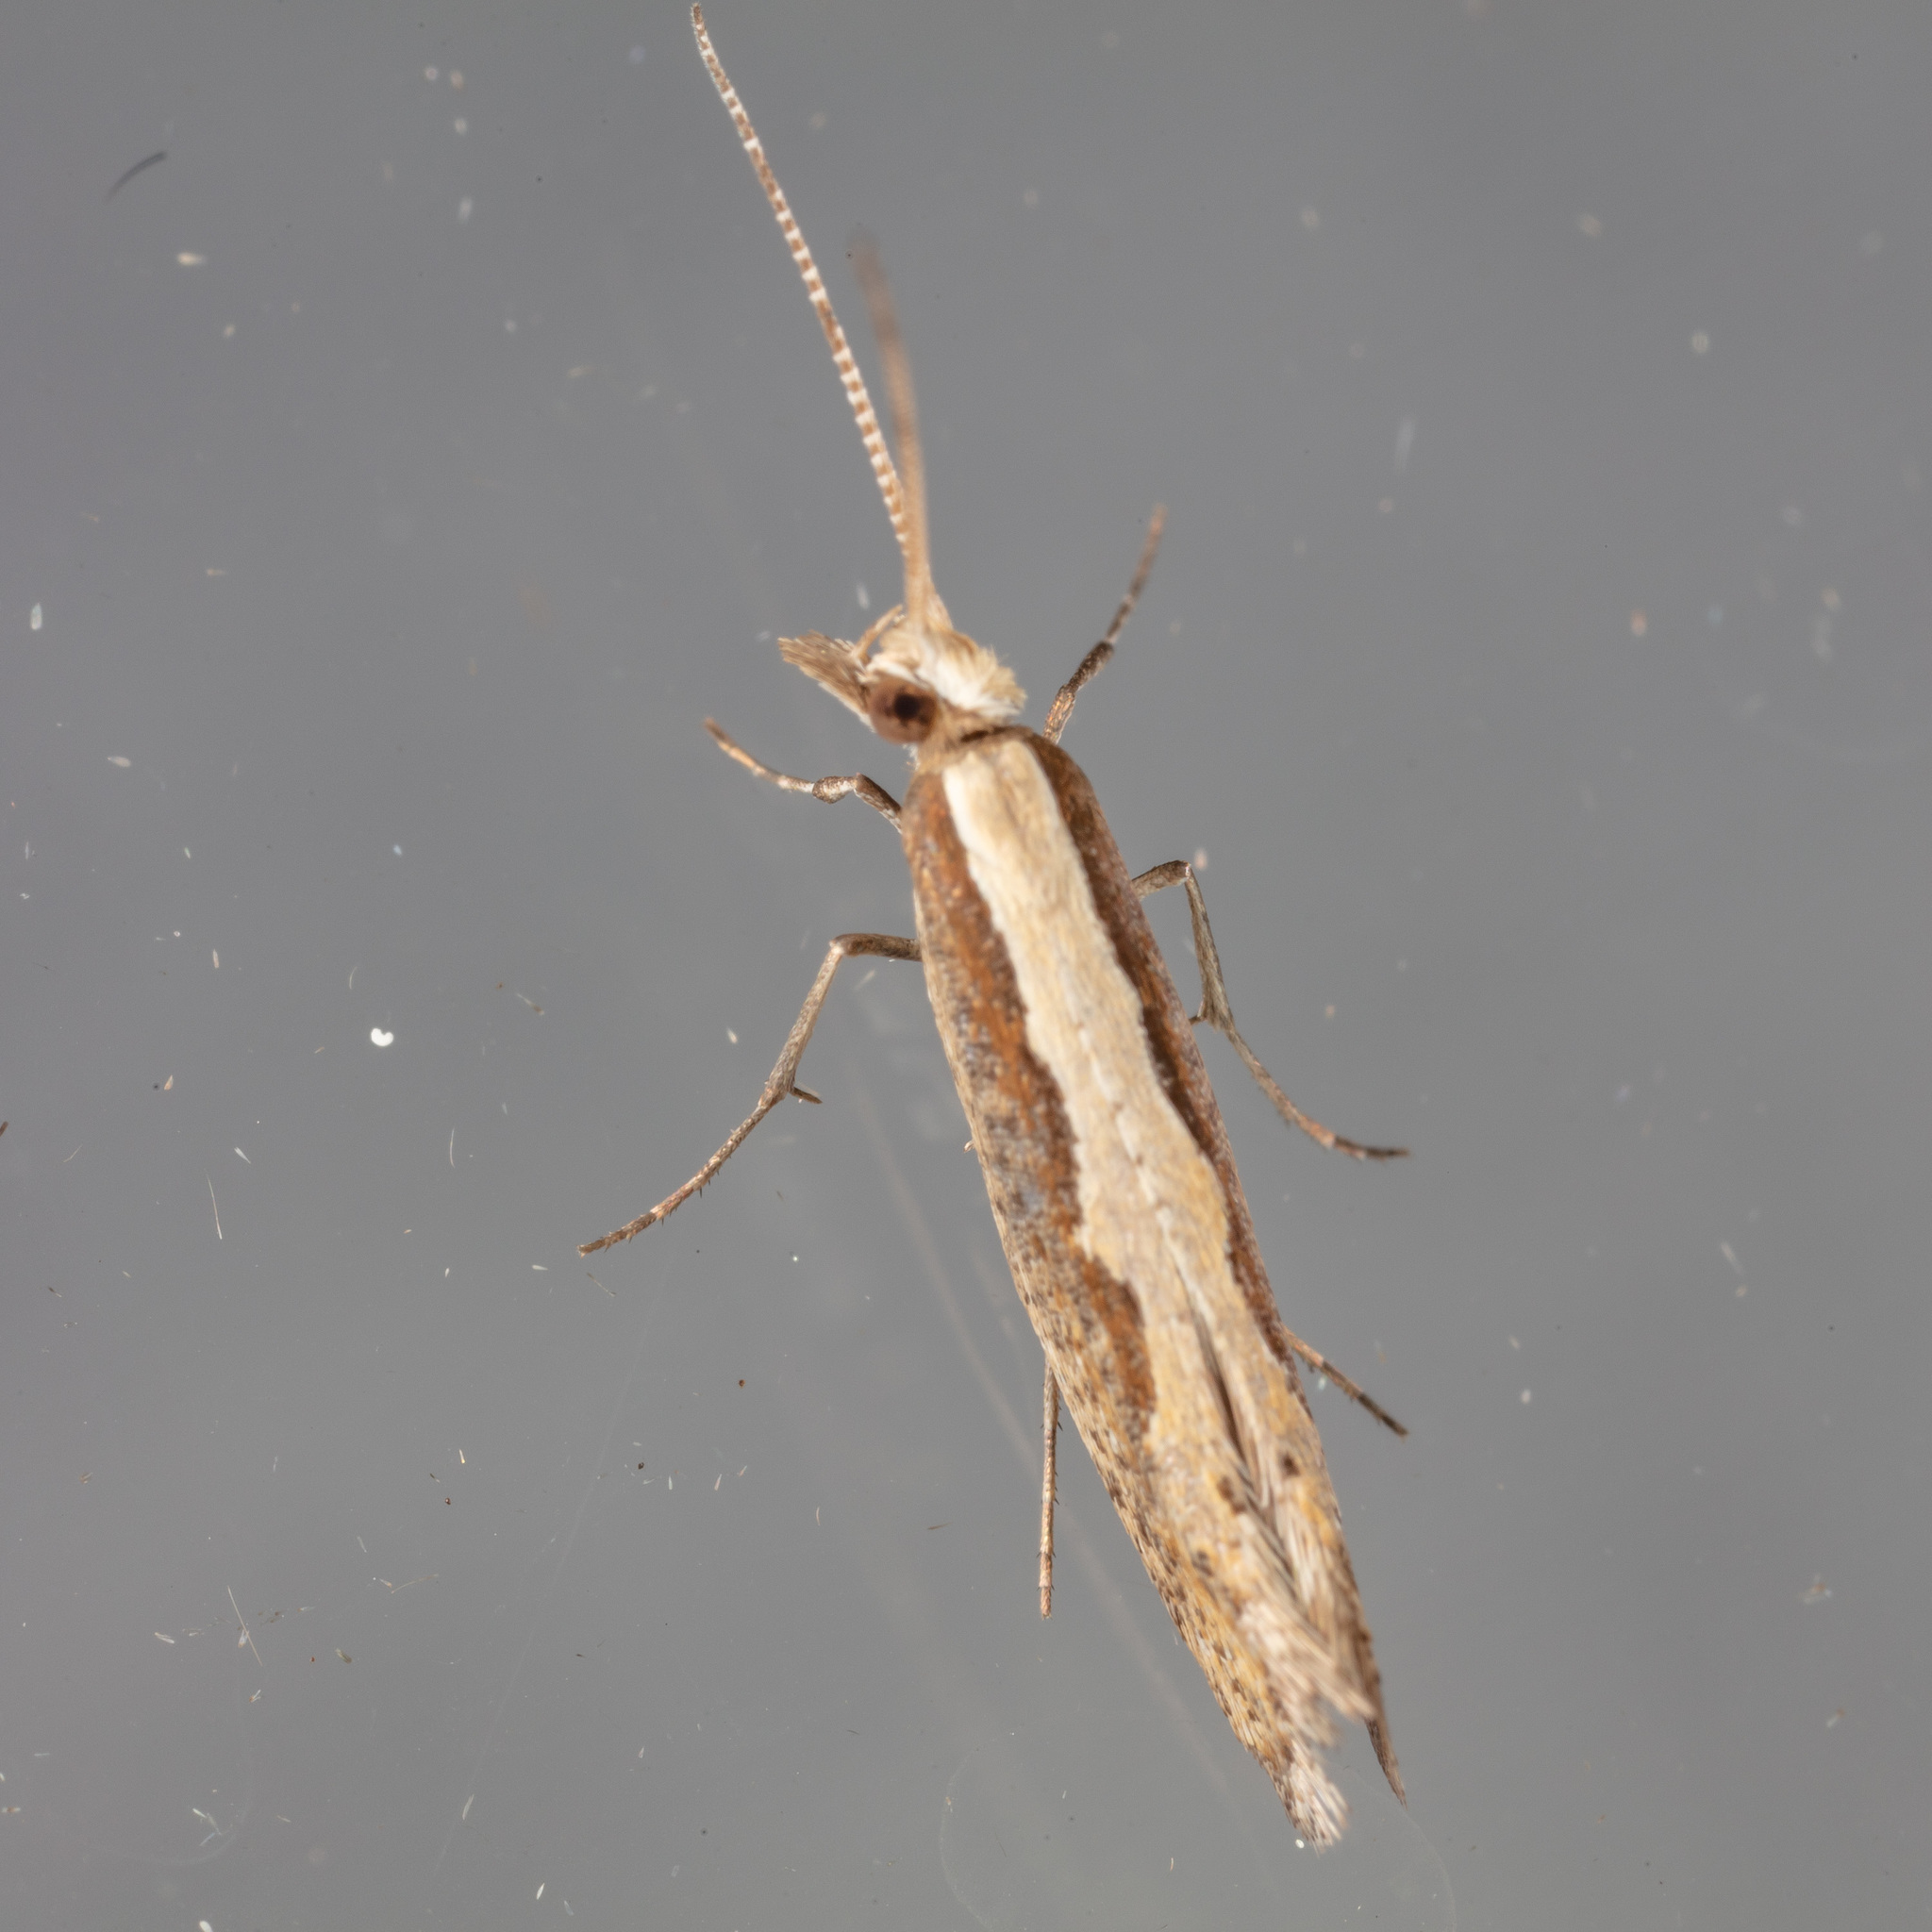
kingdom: Animalia
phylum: Arthropoda
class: Insecta
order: Lepidoptera
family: Plutellidae
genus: Plutella
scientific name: Plutella xylostella
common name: Diamond-back moth
